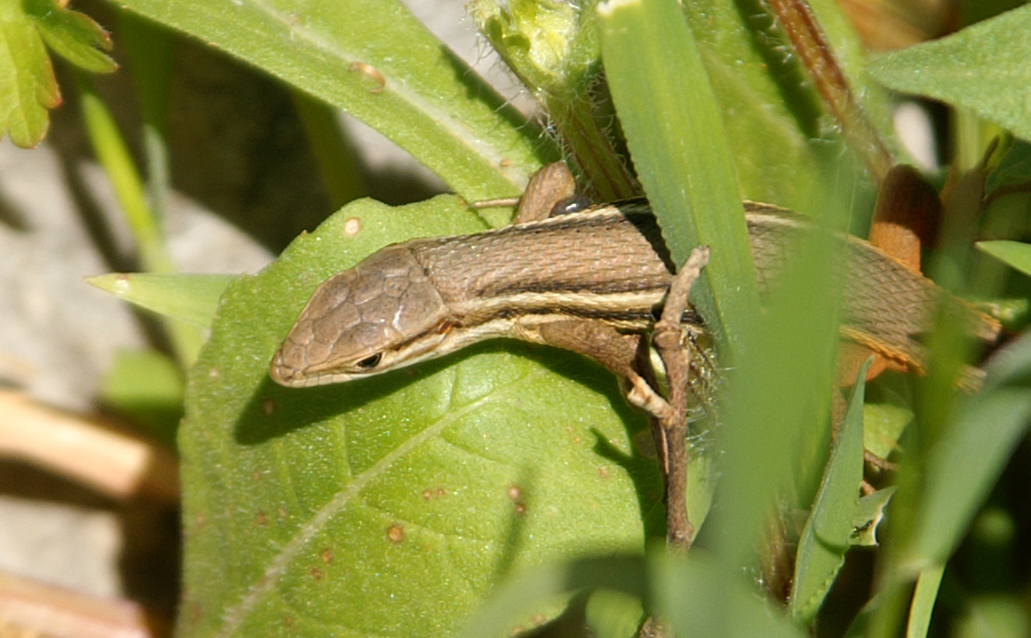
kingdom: Animalia
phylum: Chordata
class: Squamata
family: Lacertidae
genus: Psammodromus
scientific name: Psammodromus algirus
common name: Algerian psammodromus
